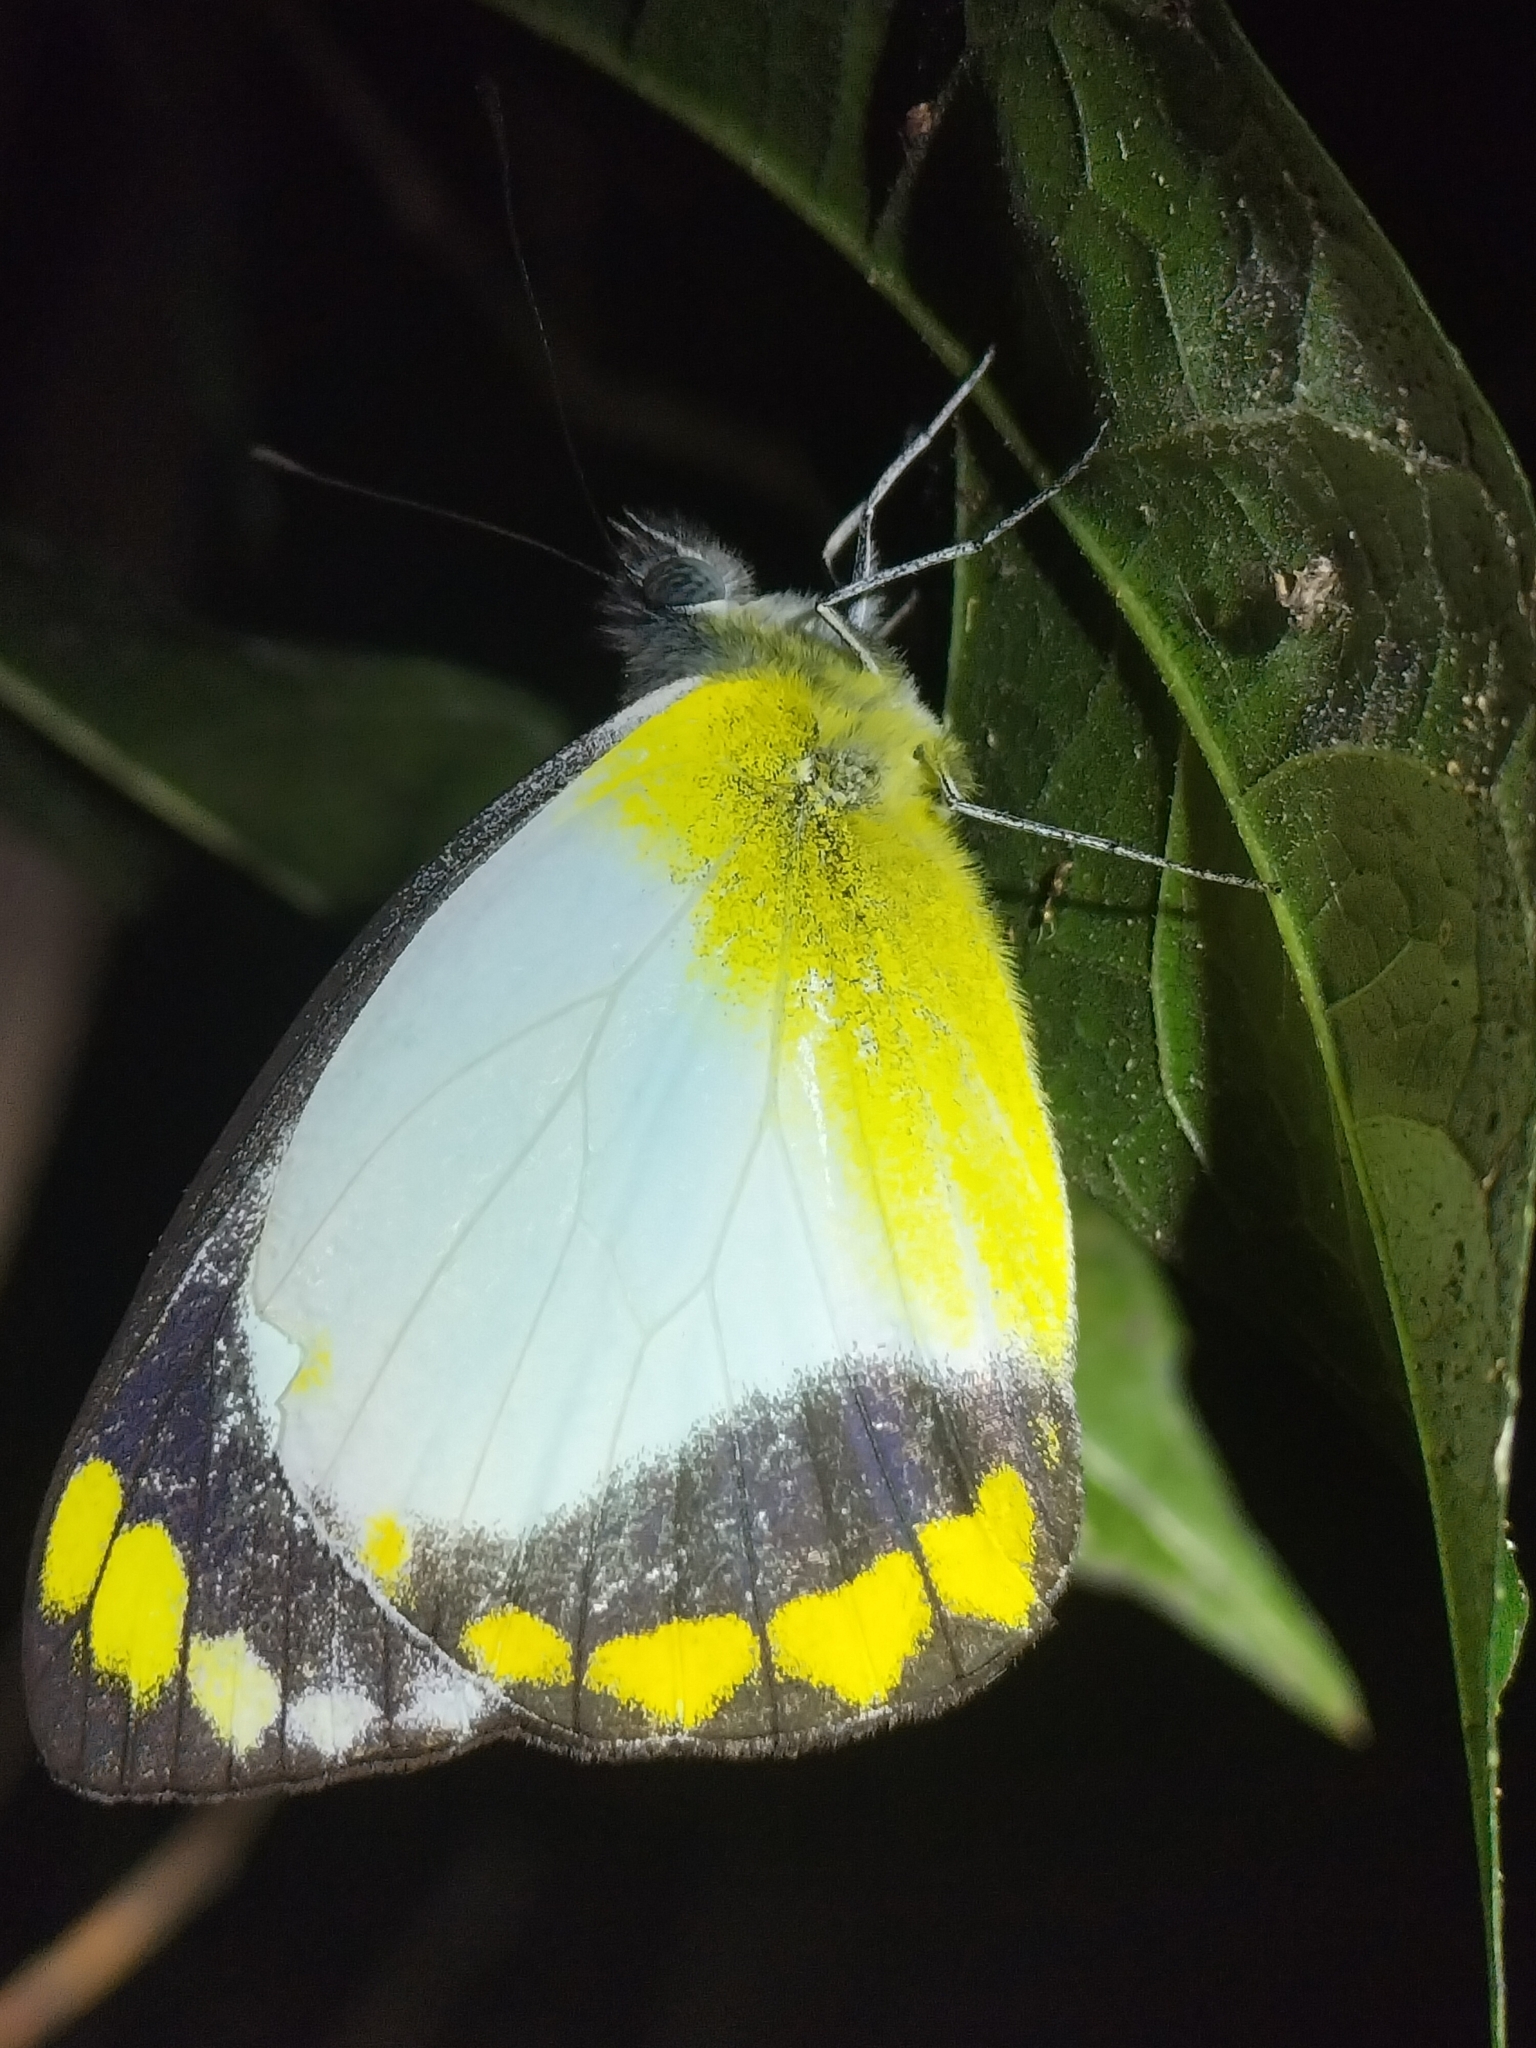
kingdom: Animalia
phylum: Arthropoda
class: Insecta
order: Lepidoptera
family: Pieridae
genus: Delias
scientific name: Delias ennia
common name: Yellow-banded jezebel
